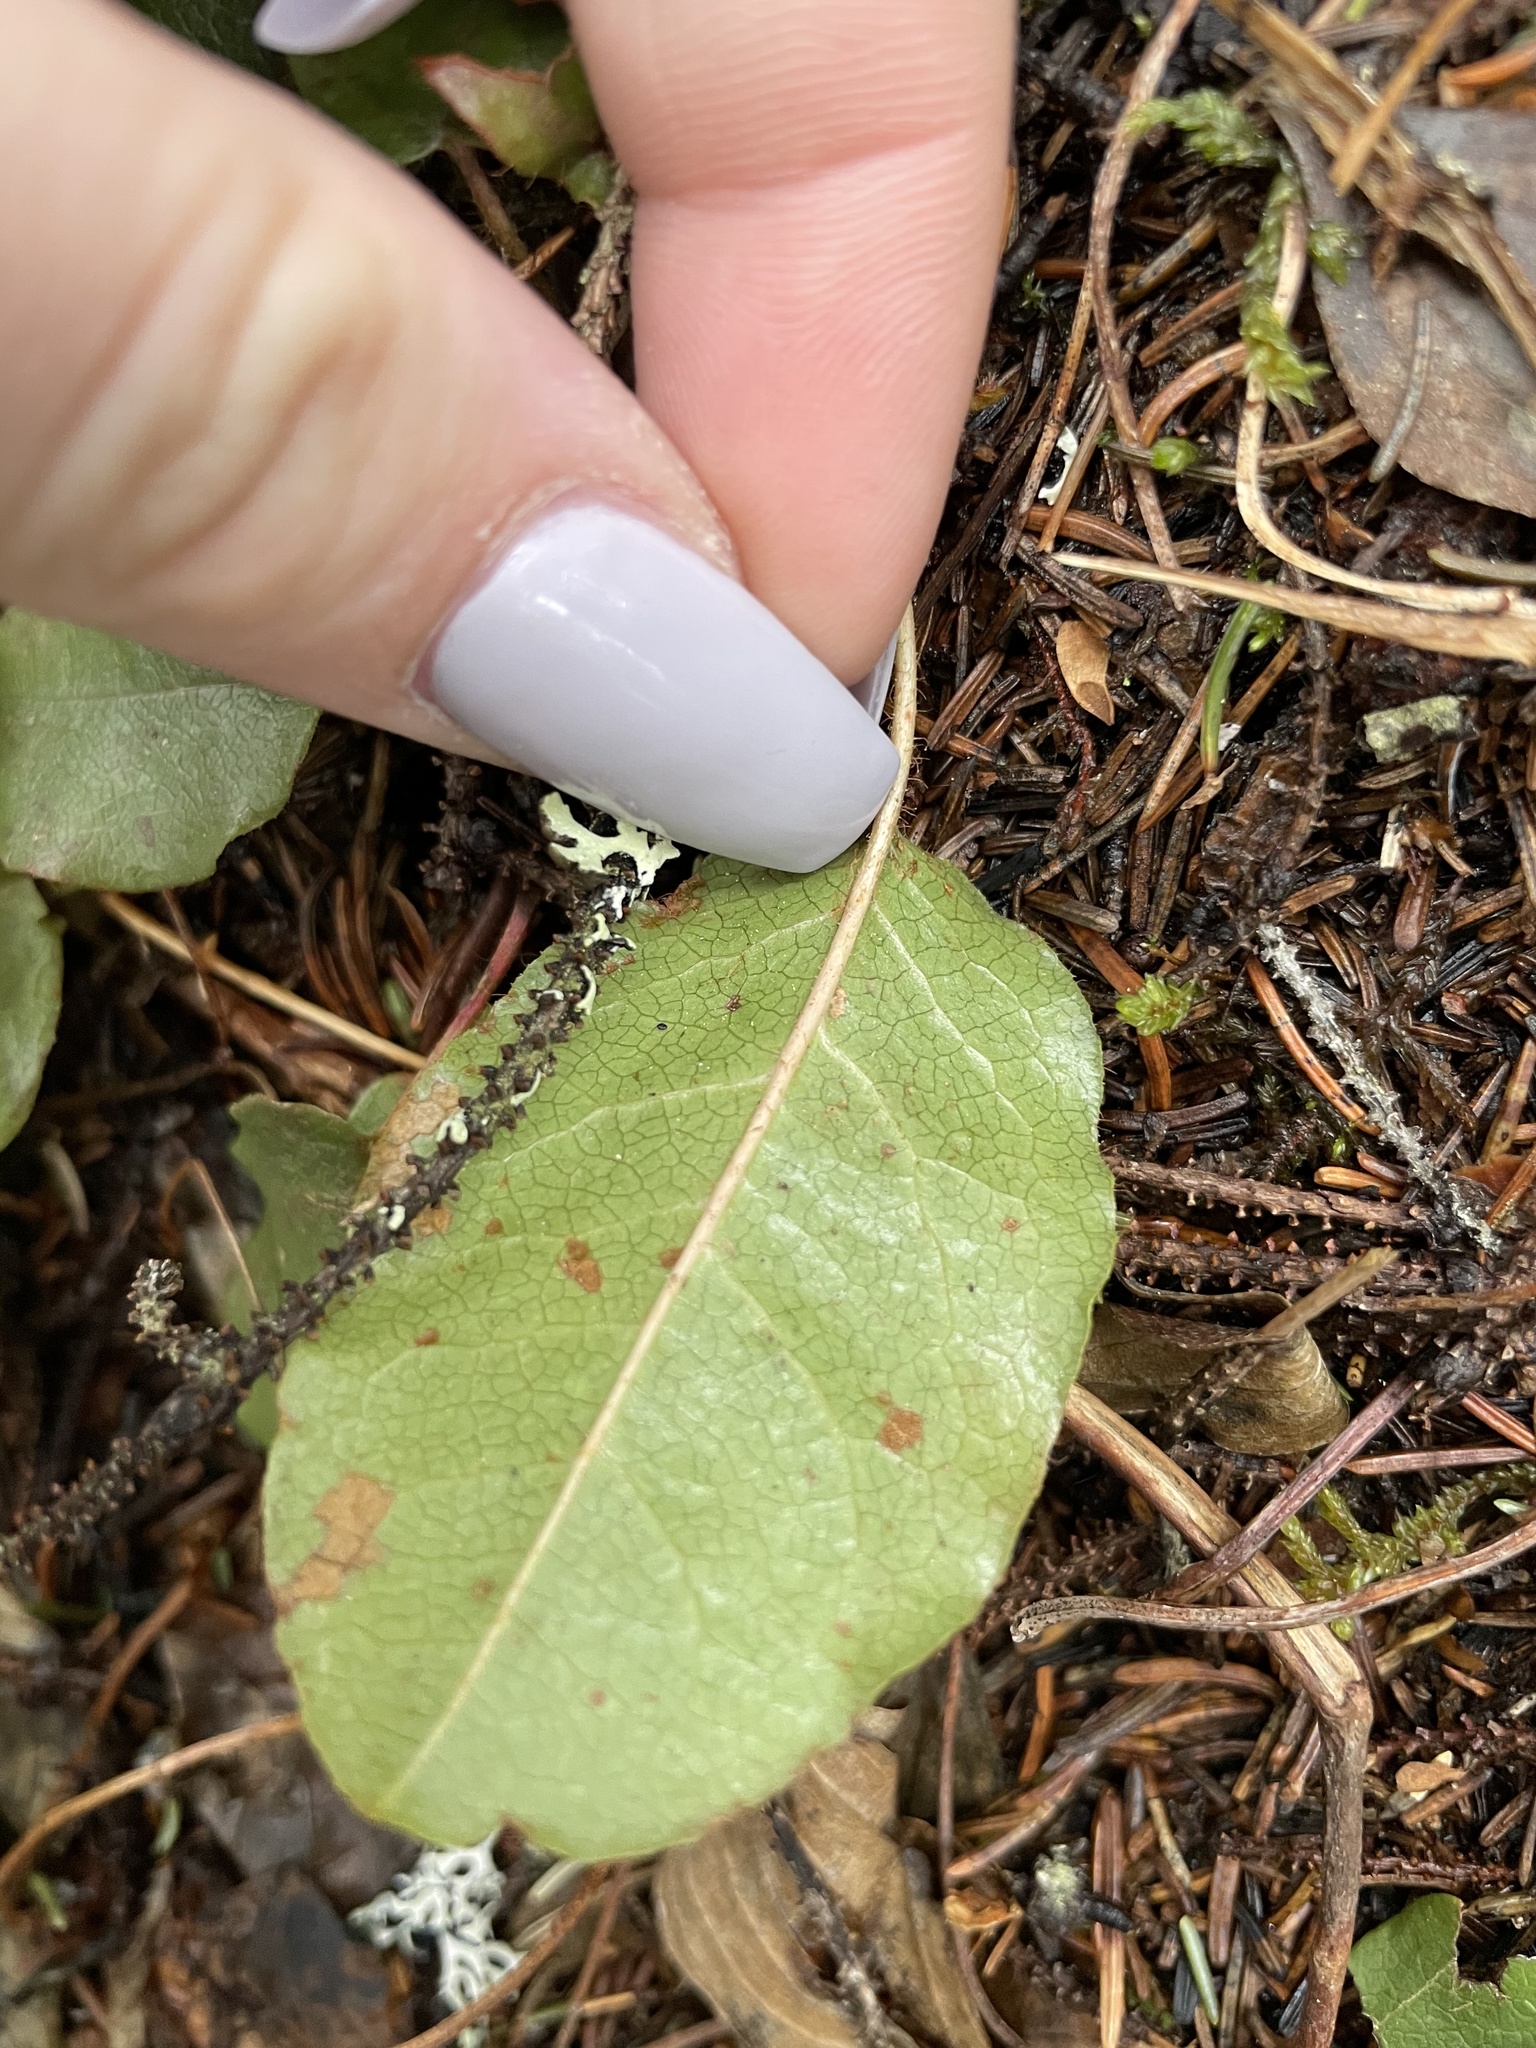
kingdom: Plantae
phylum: Tracheophyta
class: Magnoliopsida
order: Ericales
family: Ericaceae
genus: Epigaea
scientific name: Epigaea repens
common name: Gravelroot
